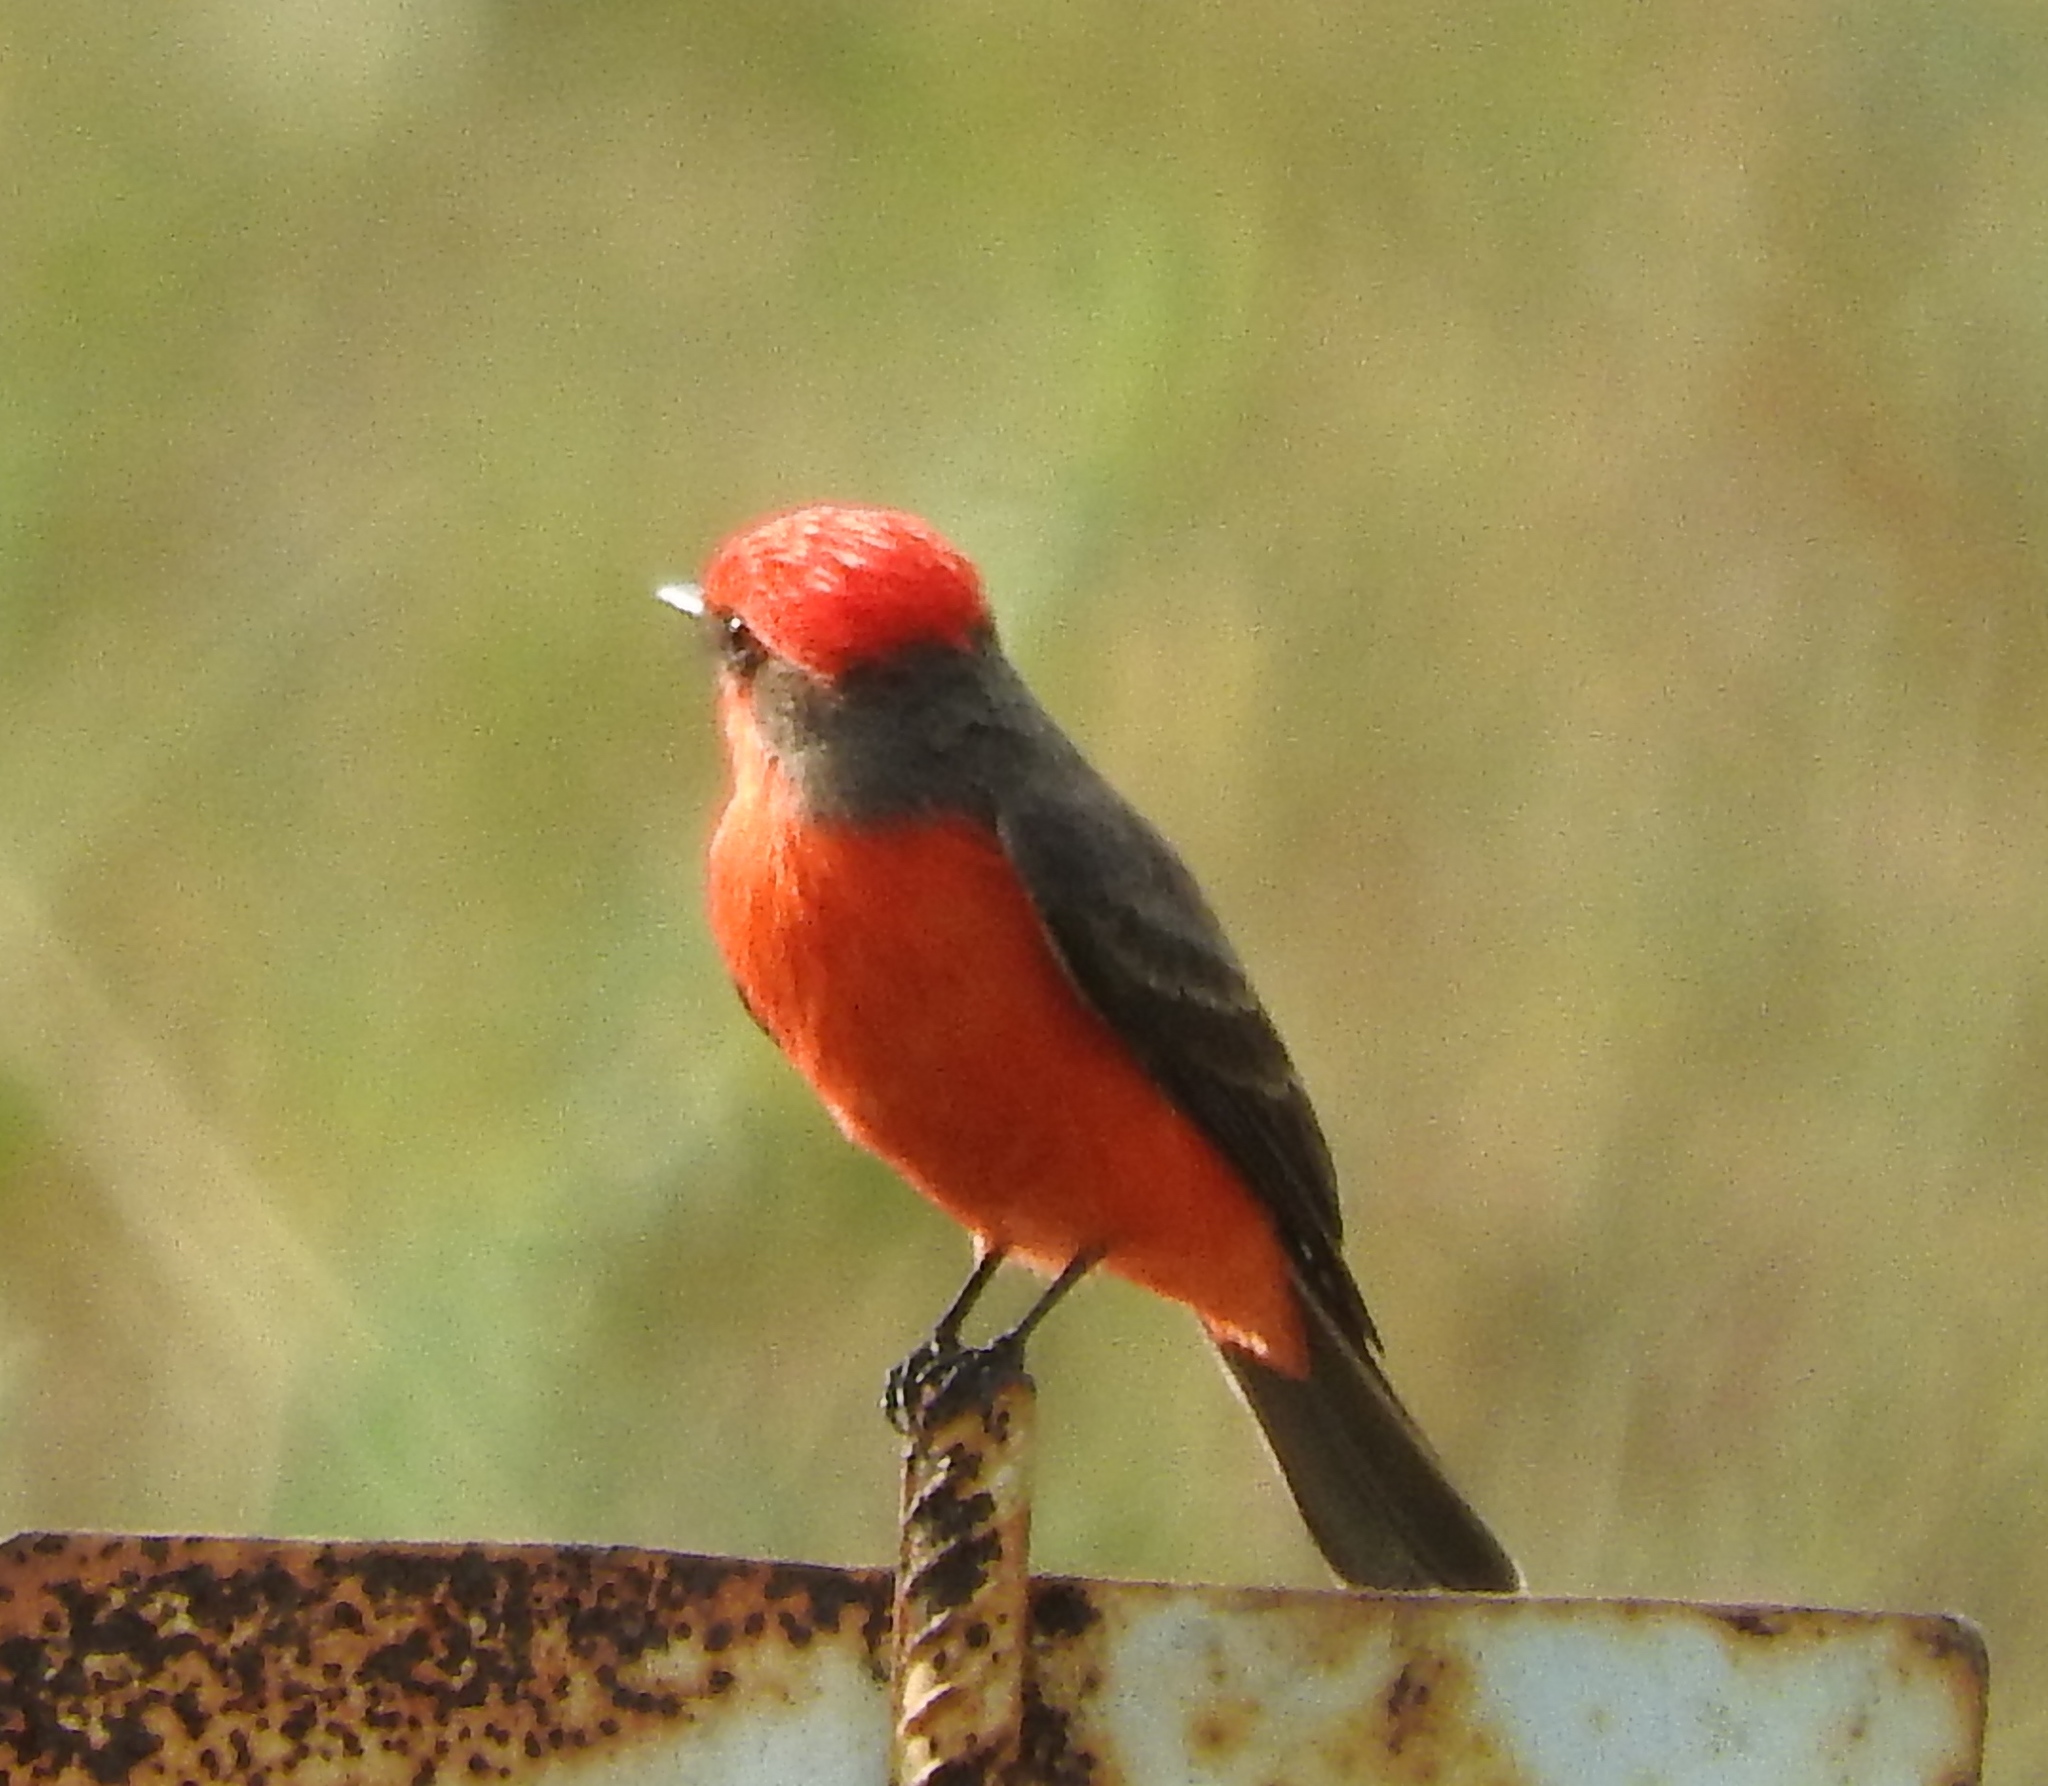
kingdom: Animalia
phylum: Chordata
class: Aves
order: Passeriformes
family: Tyrannidae
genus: Pyrocephalus
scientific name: Pyrocephalus rubinus
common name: Vermilion flycatcher
